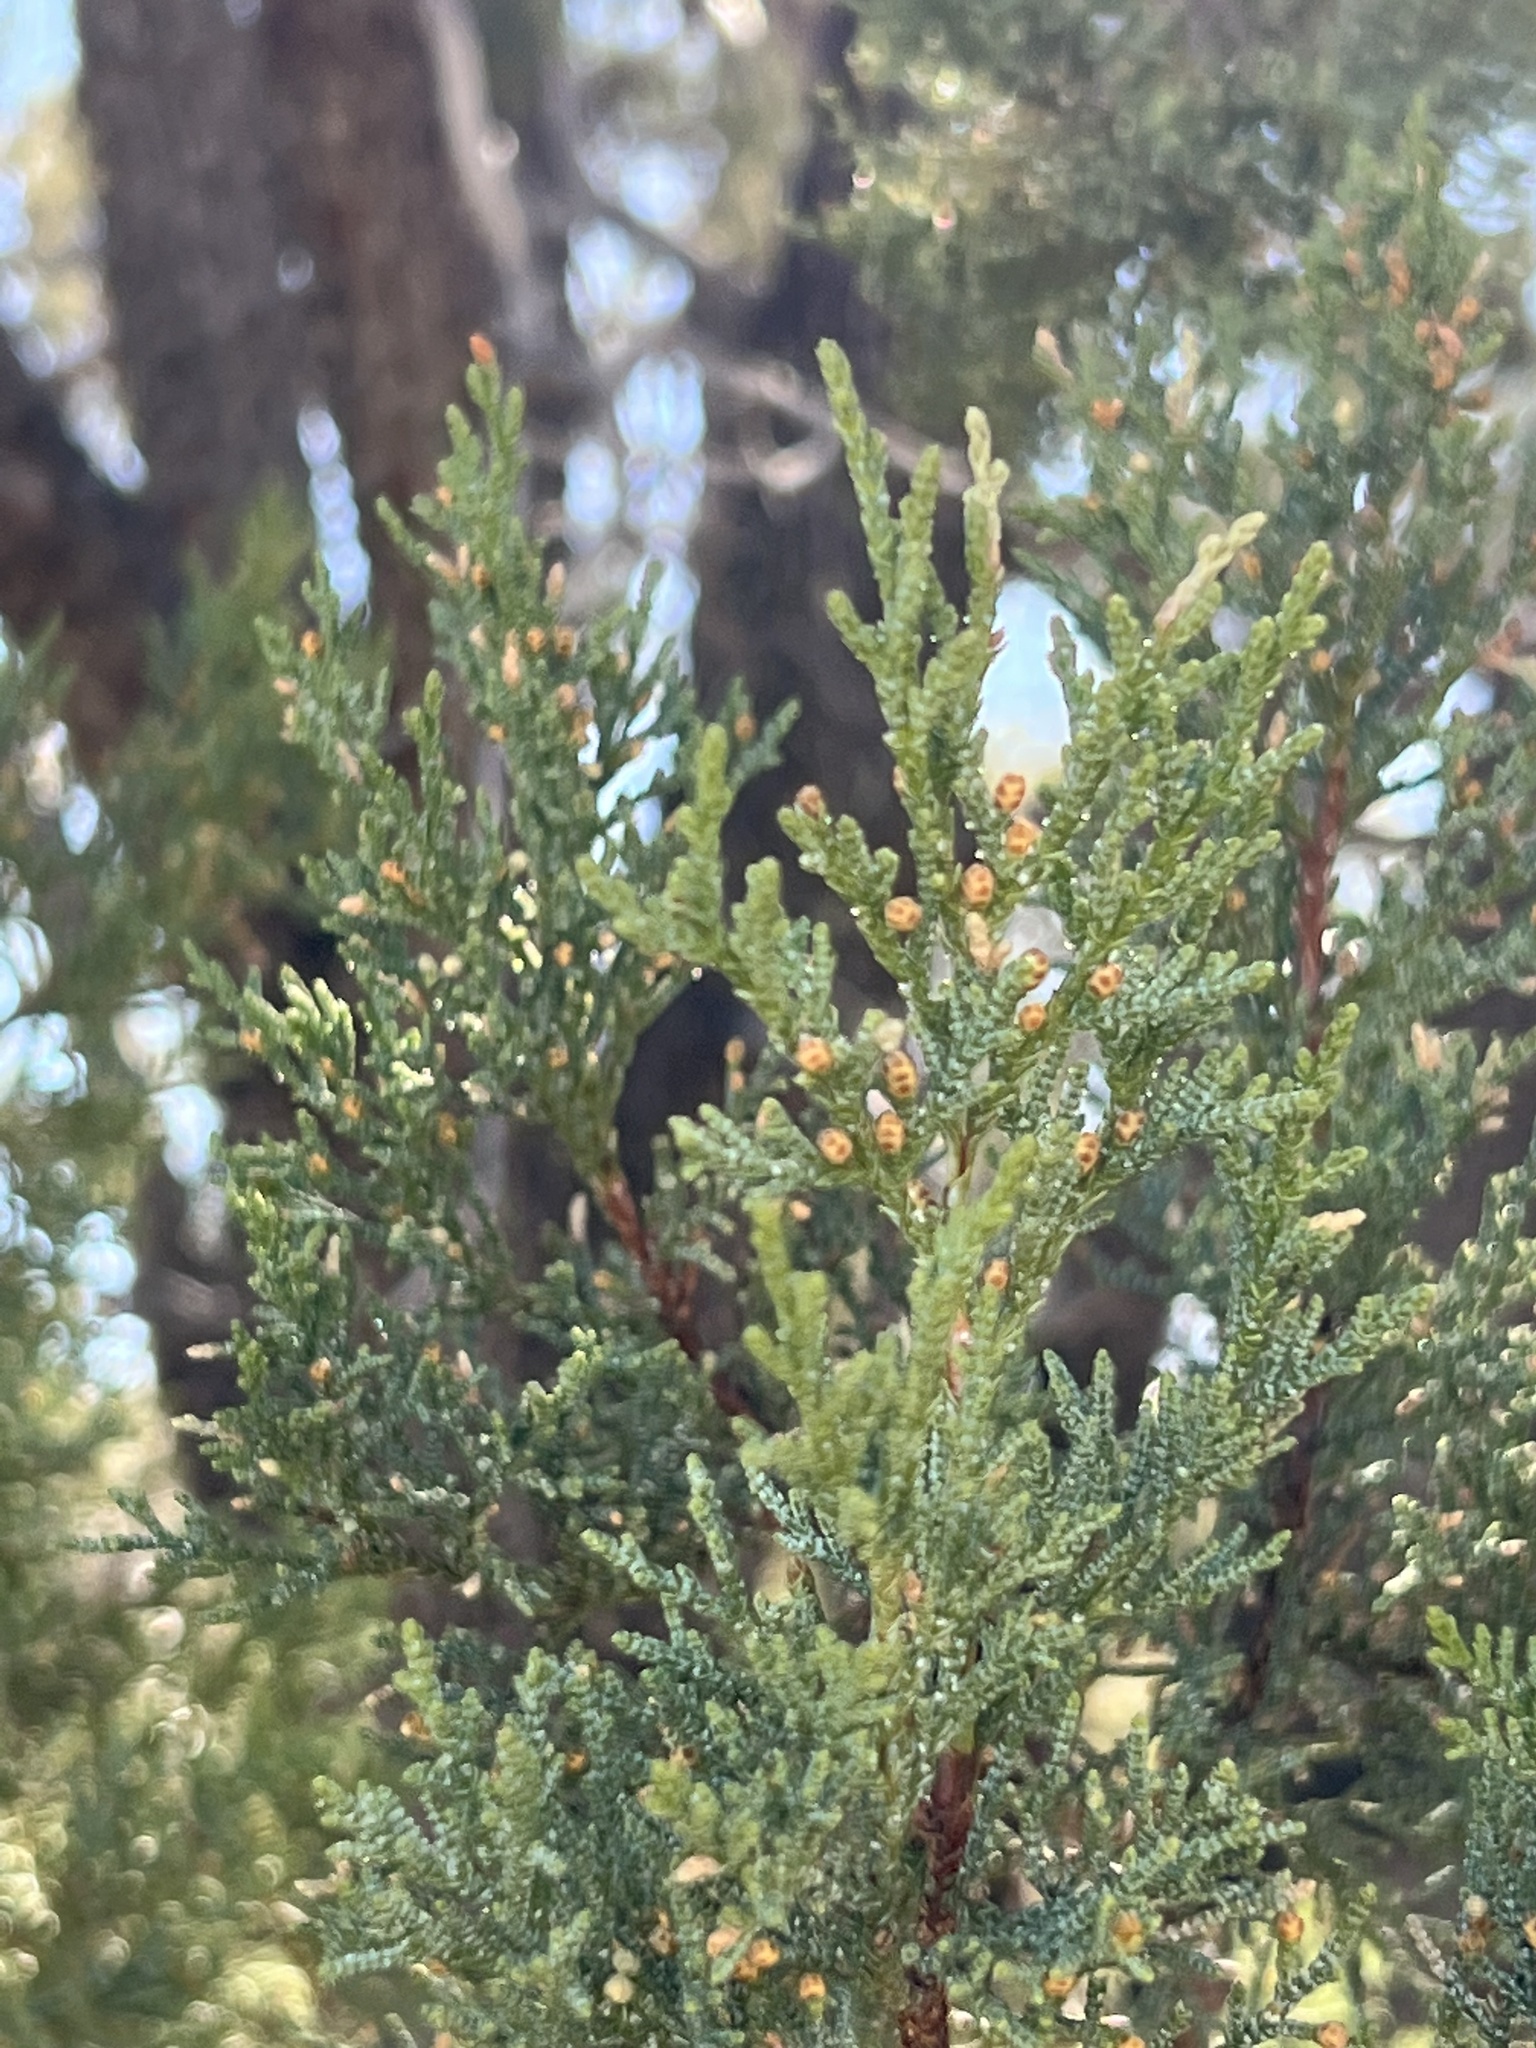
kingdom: Plantae
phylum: Tracheophyta
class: Pinopsida
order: Pinales
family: Cupressaceae
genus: Juniperus
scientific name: Juniperus deppeana
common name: Alligator juniper
